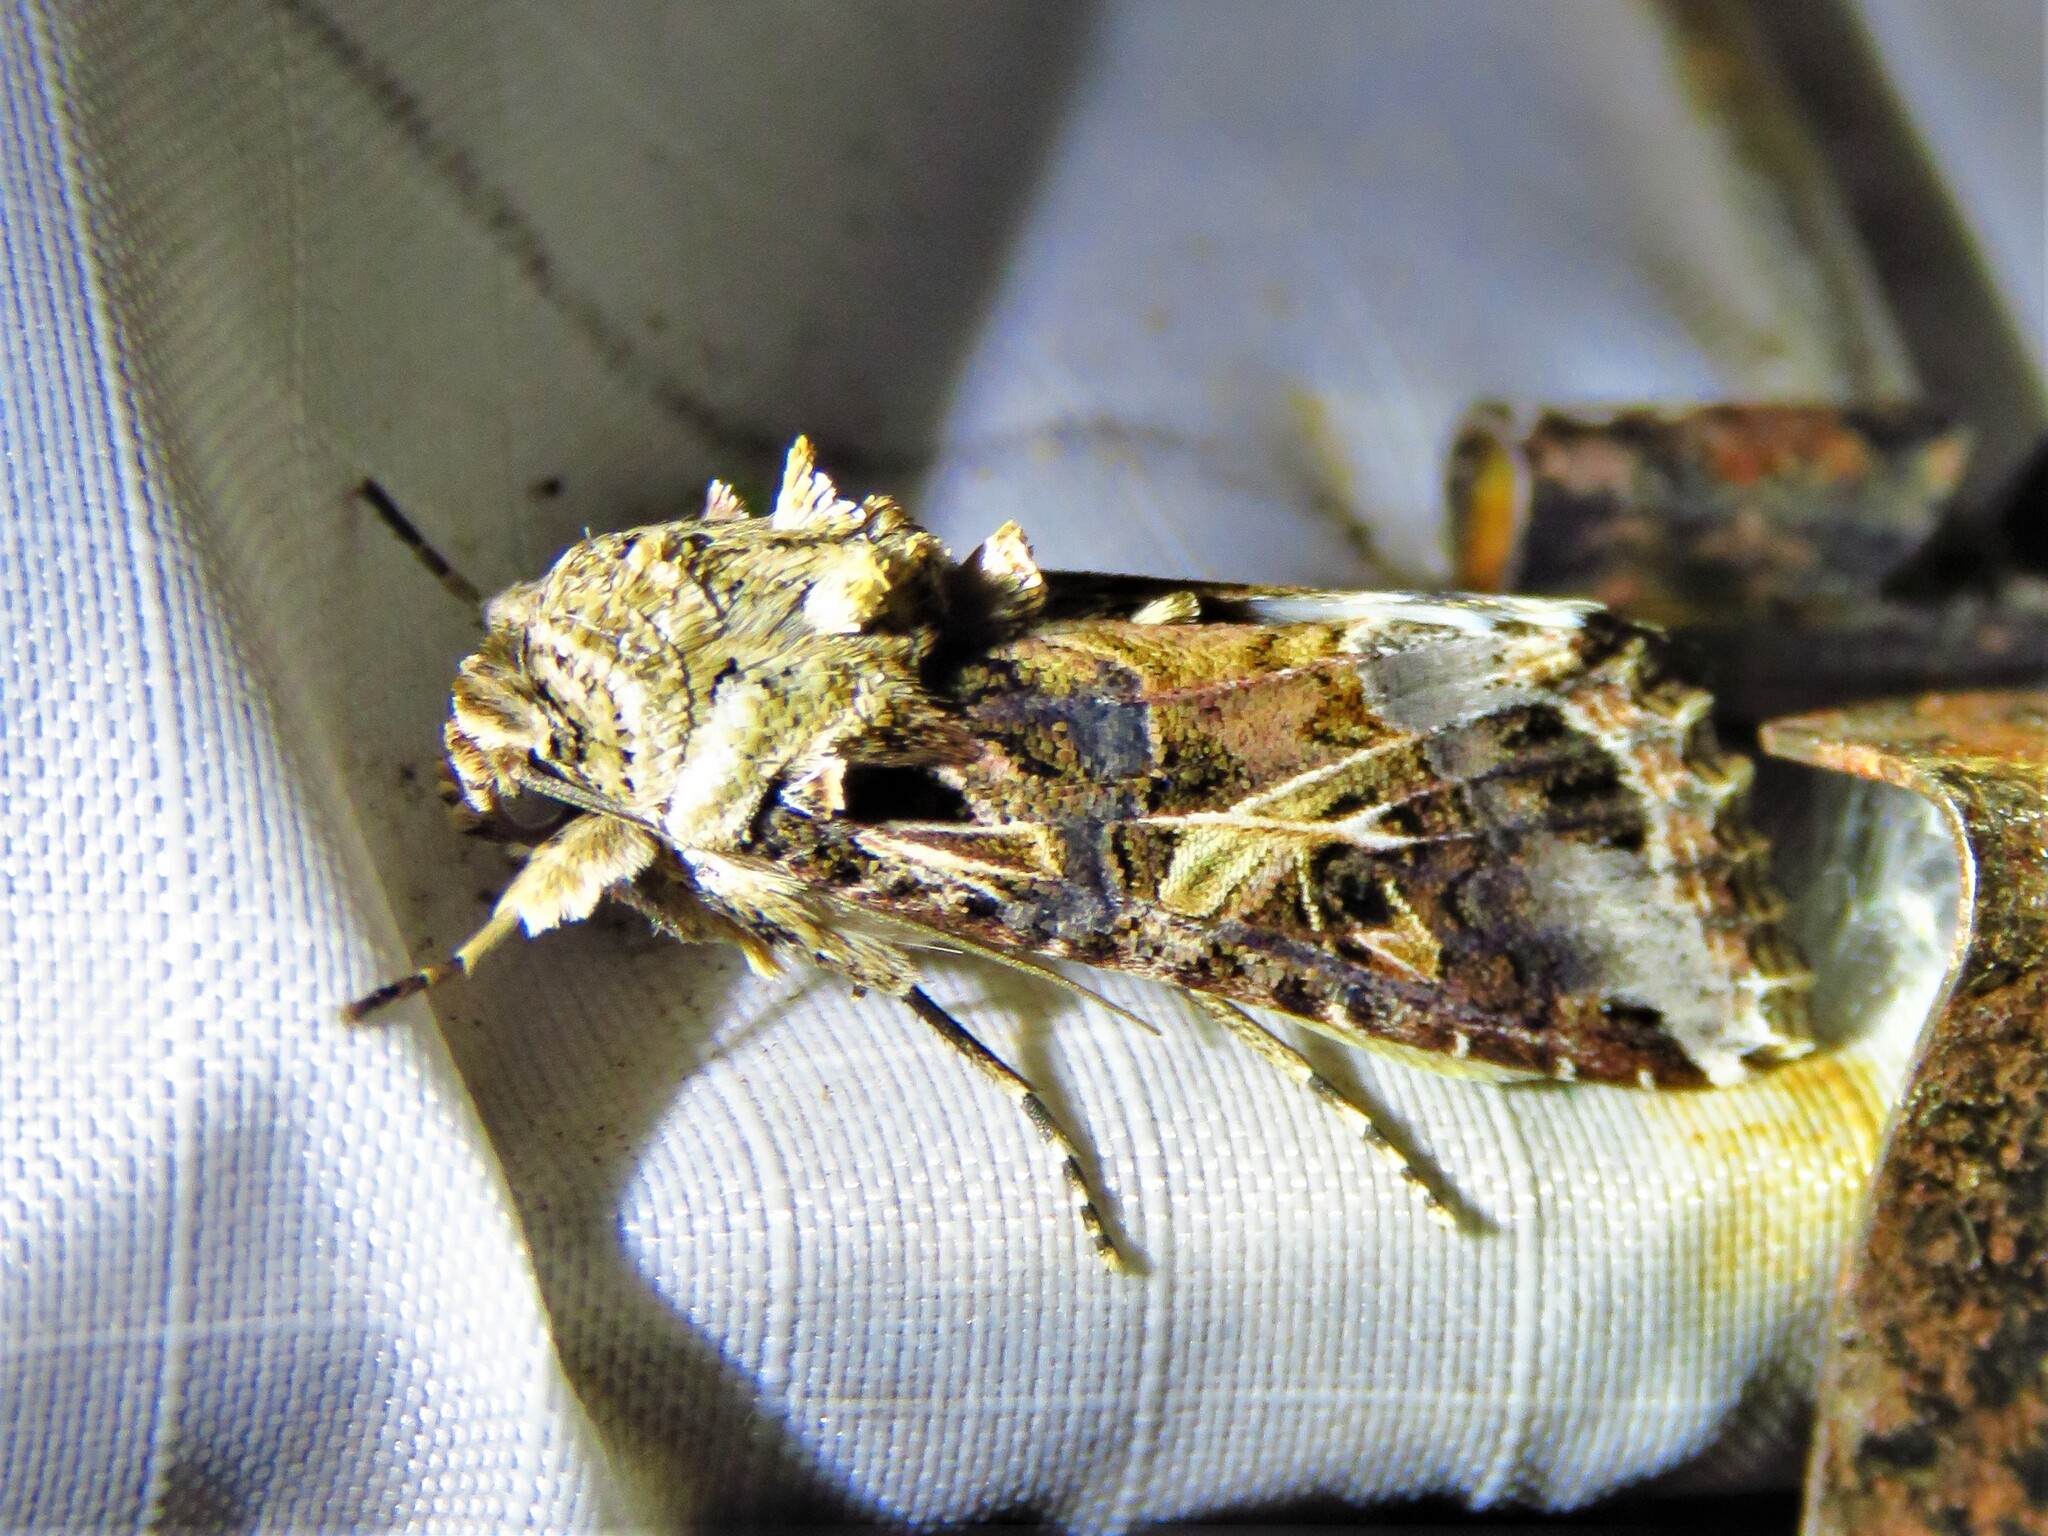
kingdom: Animalia
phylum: Arthropoda
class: Insecta
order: Lepidoptera
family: Noctuidae
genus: Spodoptera
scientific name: Spodoptera ornithogalli
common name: Yellow-striped armyworm
